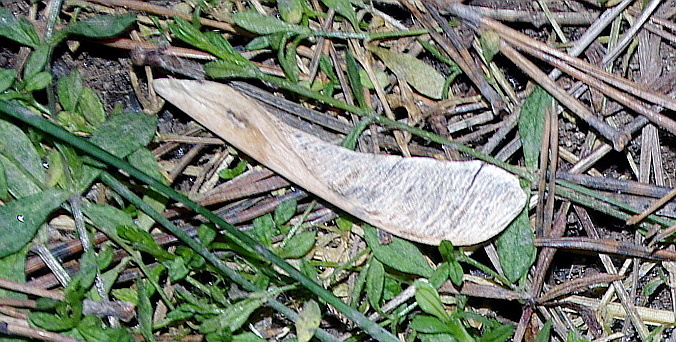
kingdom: Plantae
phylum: Tracheophyta
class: Magnoliopsida
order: Sapindales
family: Sapindaceae
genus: Acer
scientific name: Acer negundo
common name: Ashleaf maple
